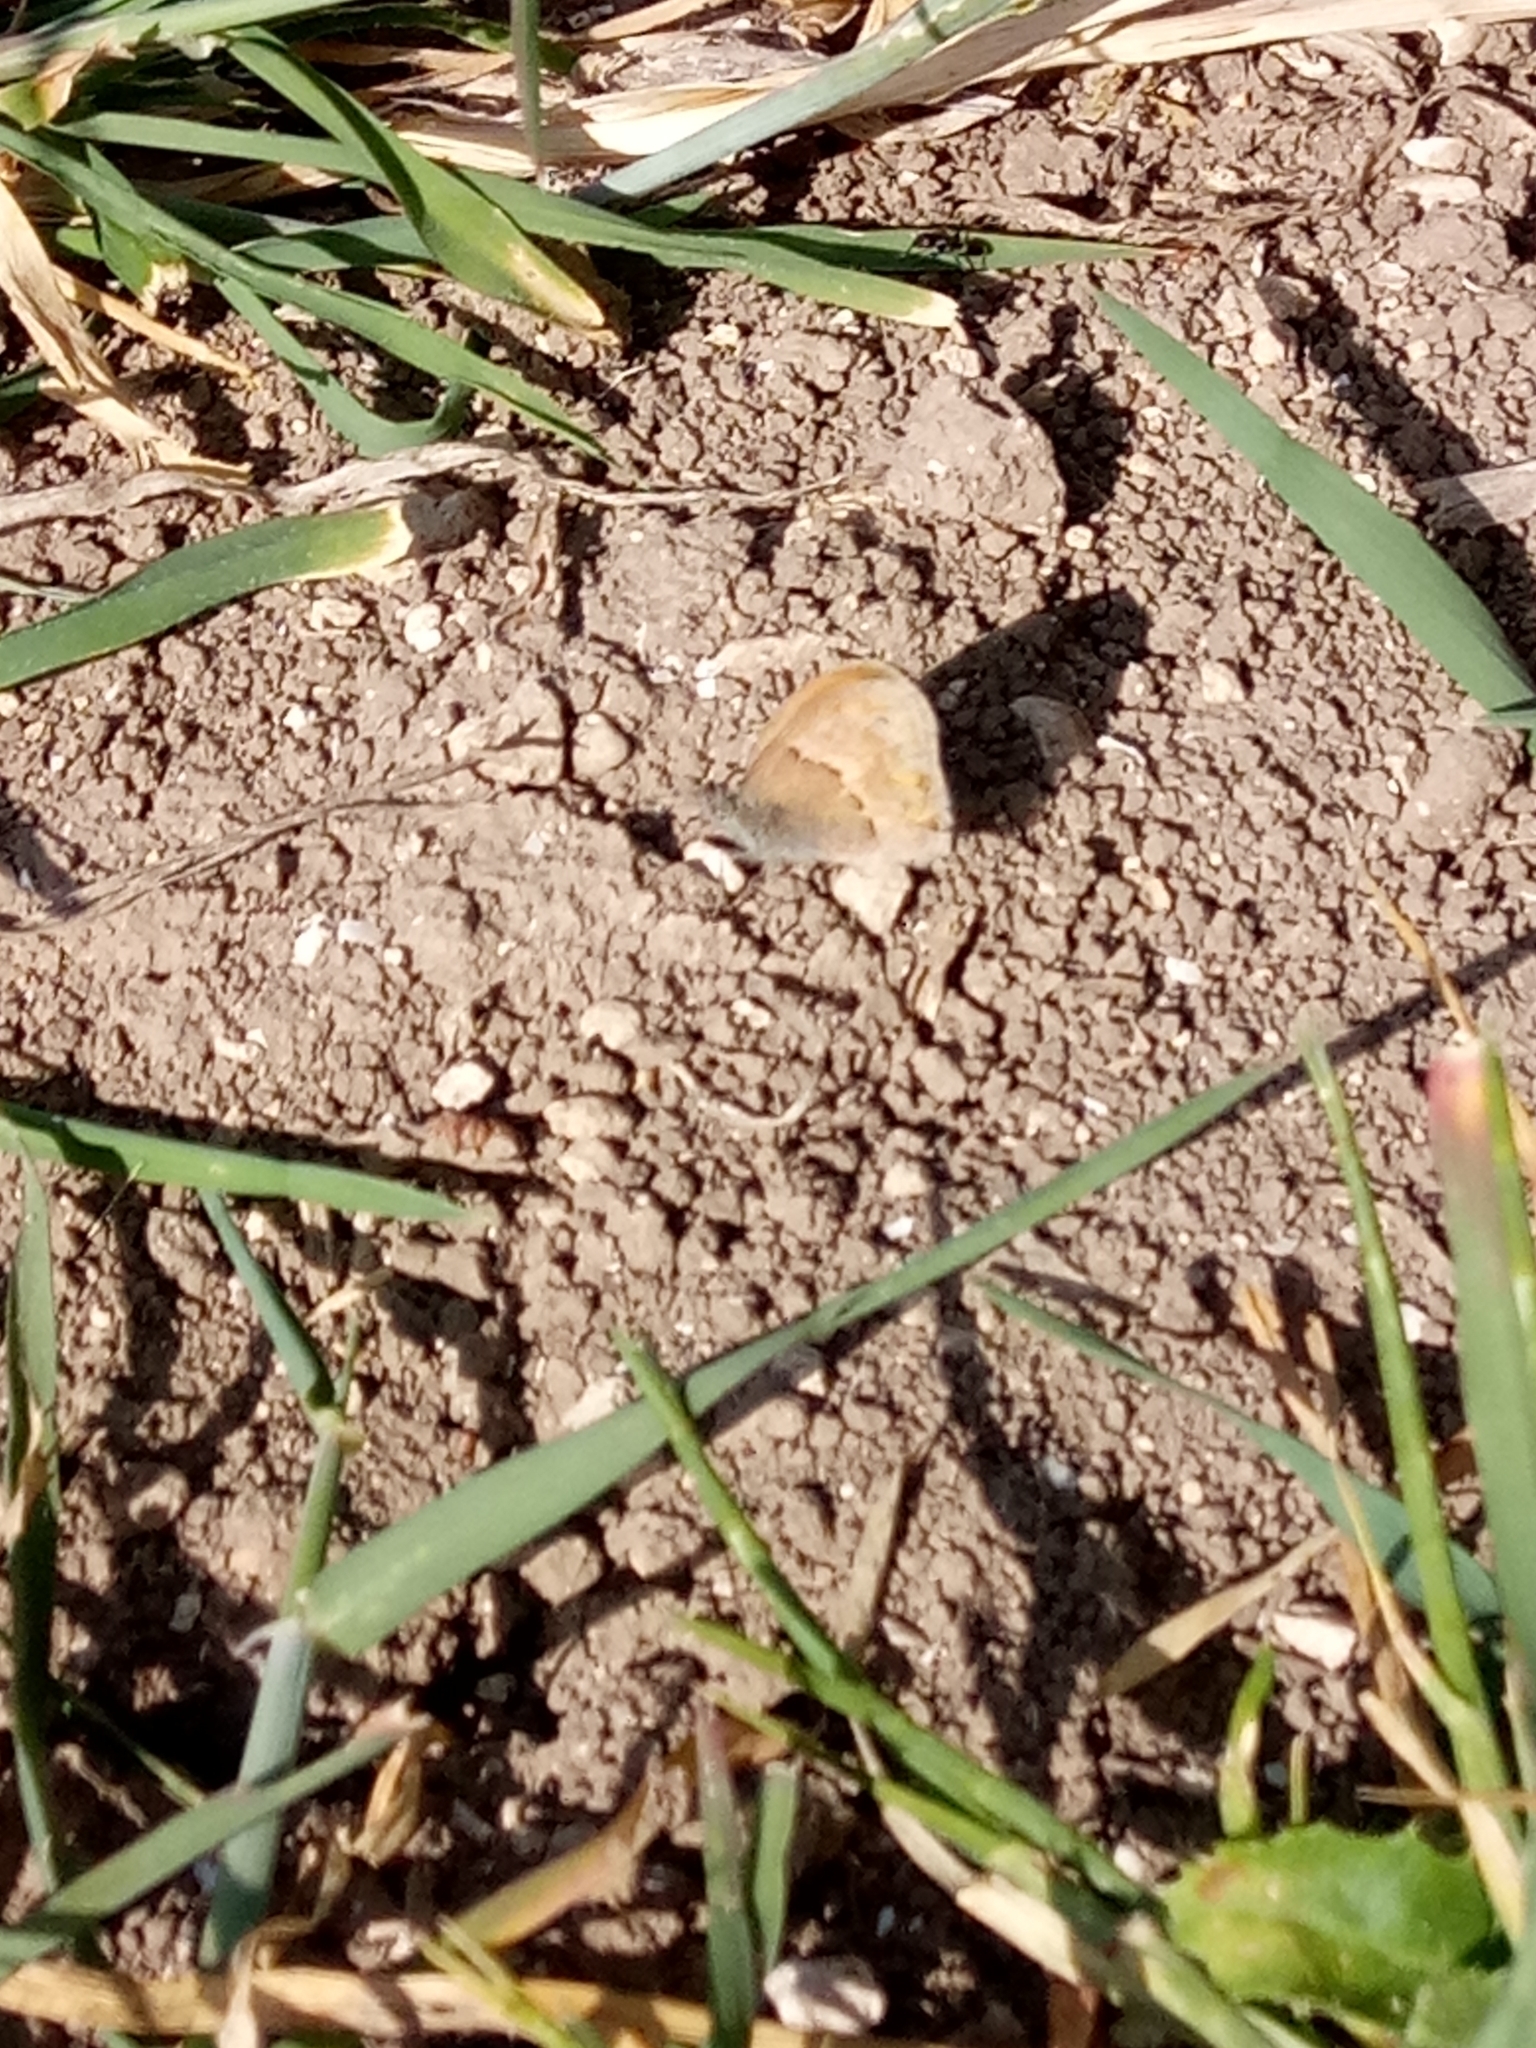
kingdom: Animalia
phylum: Arthropoda
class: Insecta
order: Lepidoptera
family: Nymphalidae
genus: Coenonympha
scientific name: Coenonympha pamphilus
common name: Small heath
